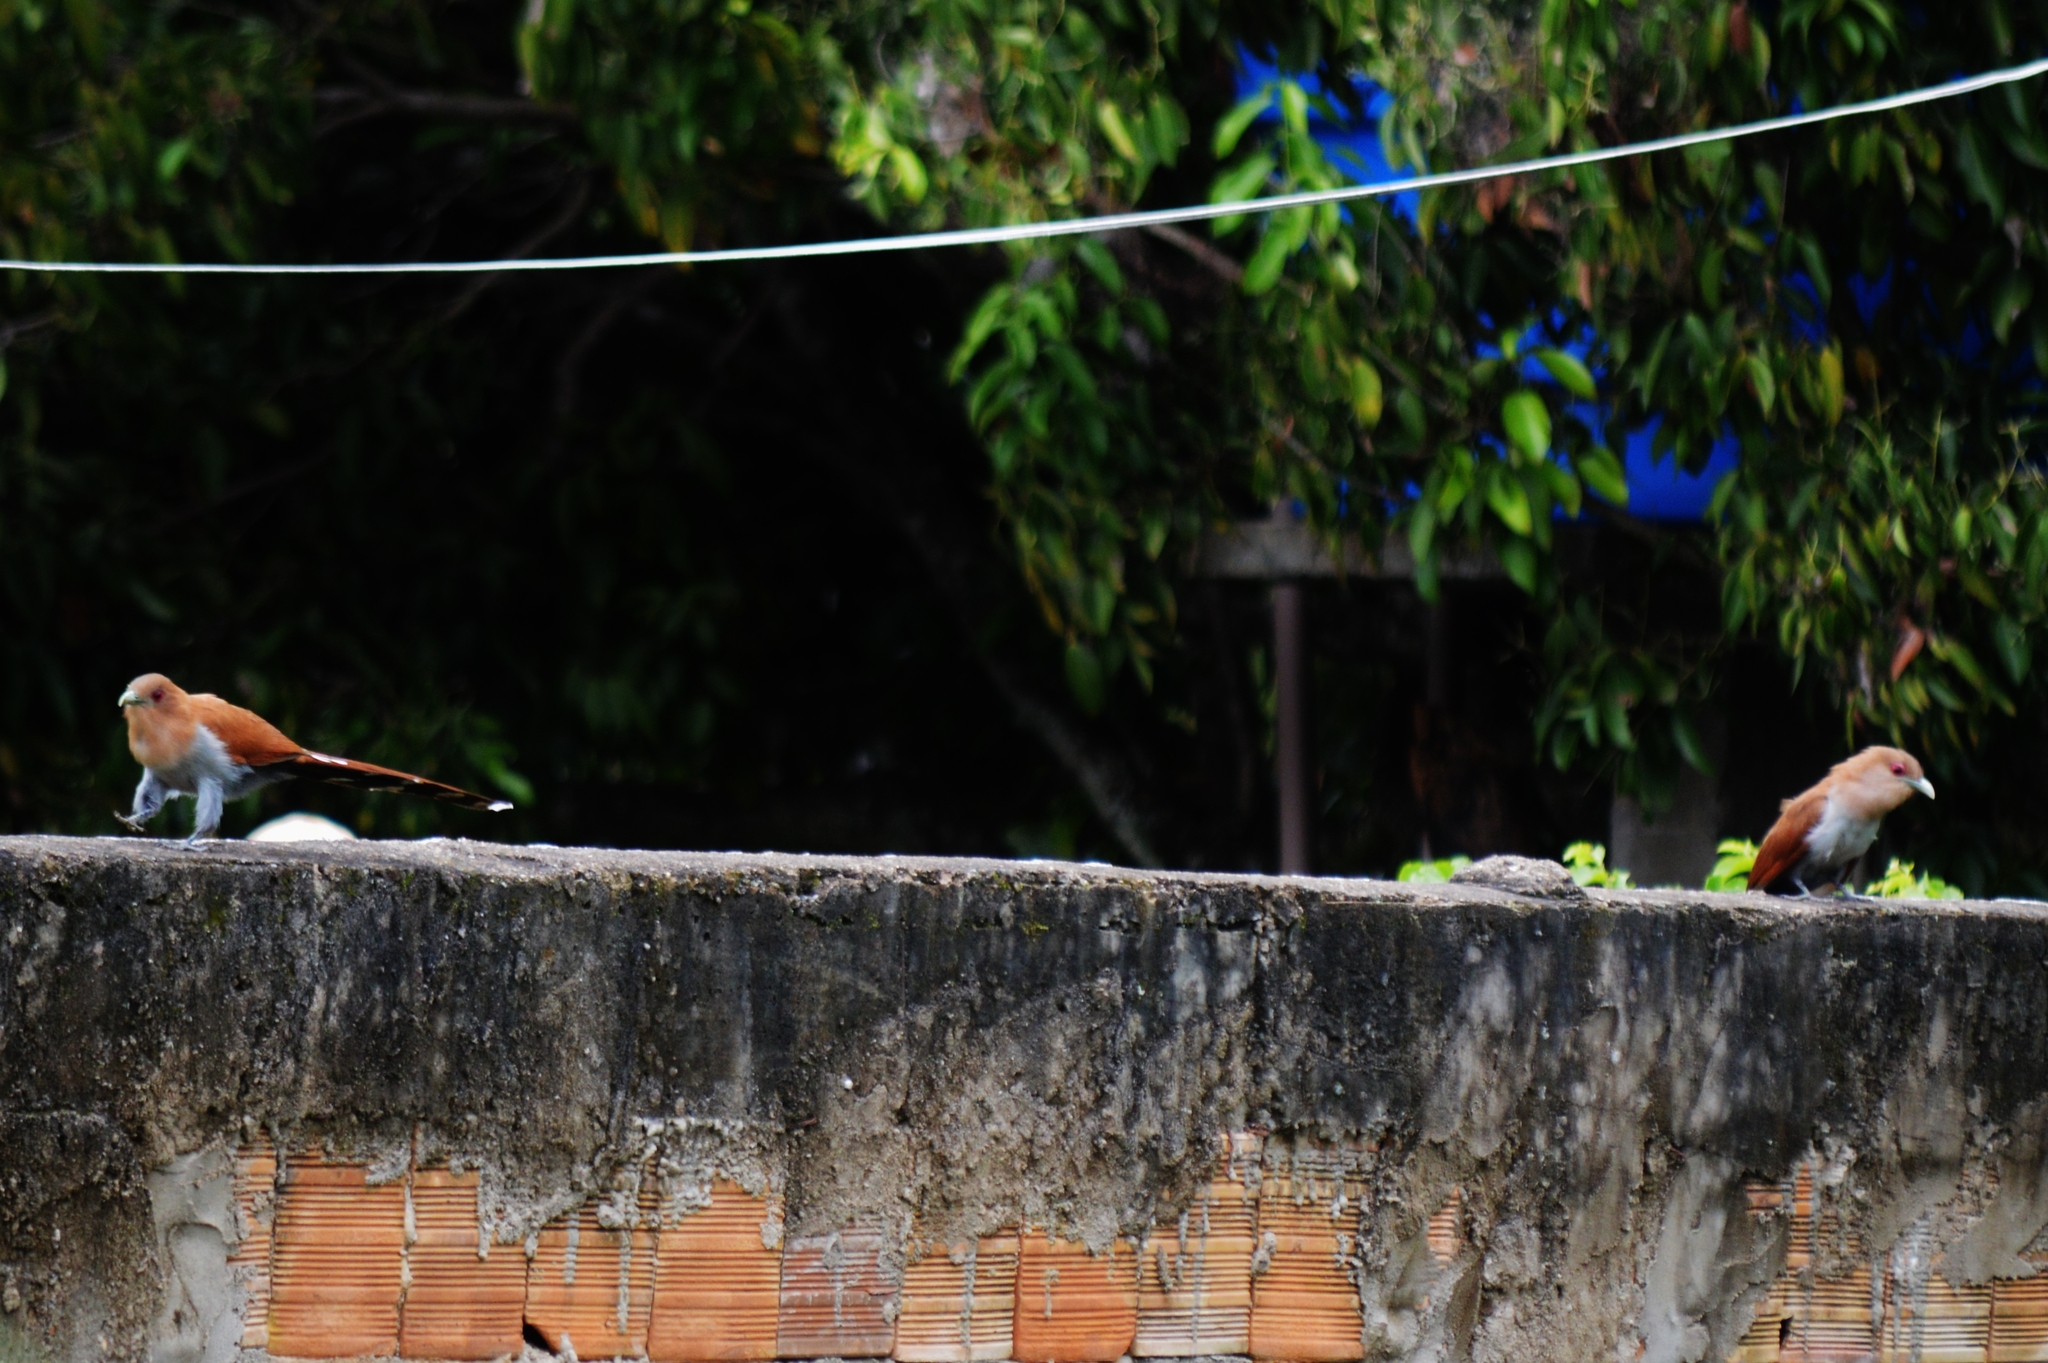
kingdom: Animalia
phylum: Chordata
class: Aves
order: Cuculiformes
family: Cuculidae
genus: Piaya
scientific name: Piaya cayana
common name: Squirrel cuckoo
